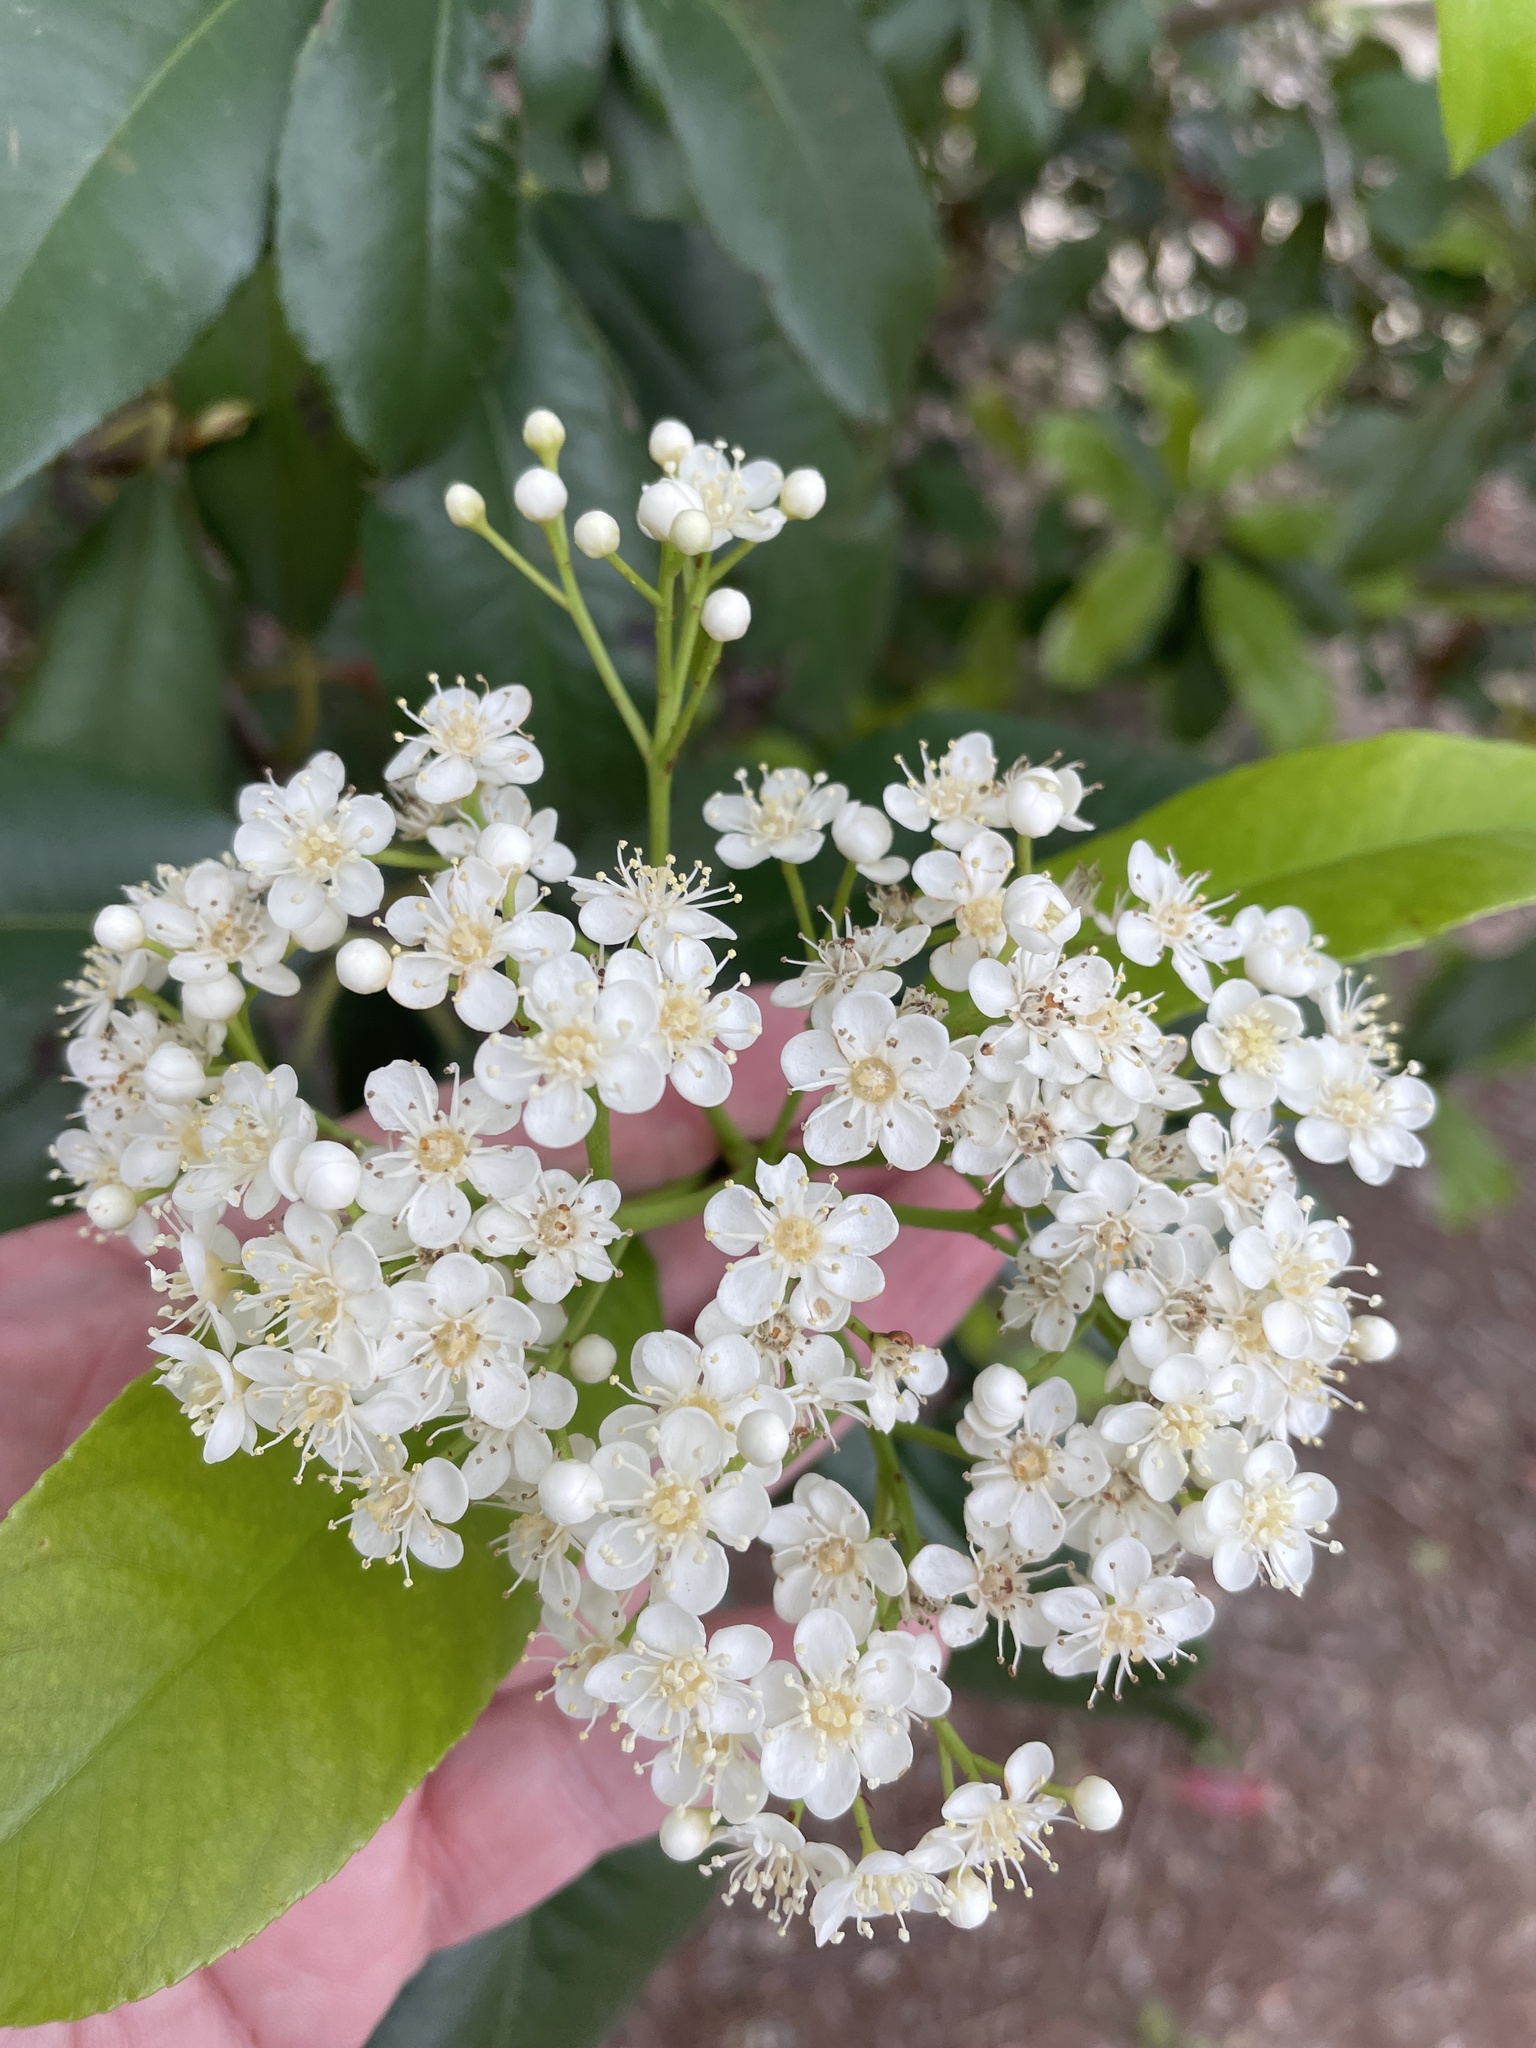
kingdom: Plantae
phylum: Tracheophyta
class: Magnoliopsida
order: Rosales
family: Rosaceae
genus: Photinia
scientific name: Photinia serratifolia
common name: Taiwanese photinia
